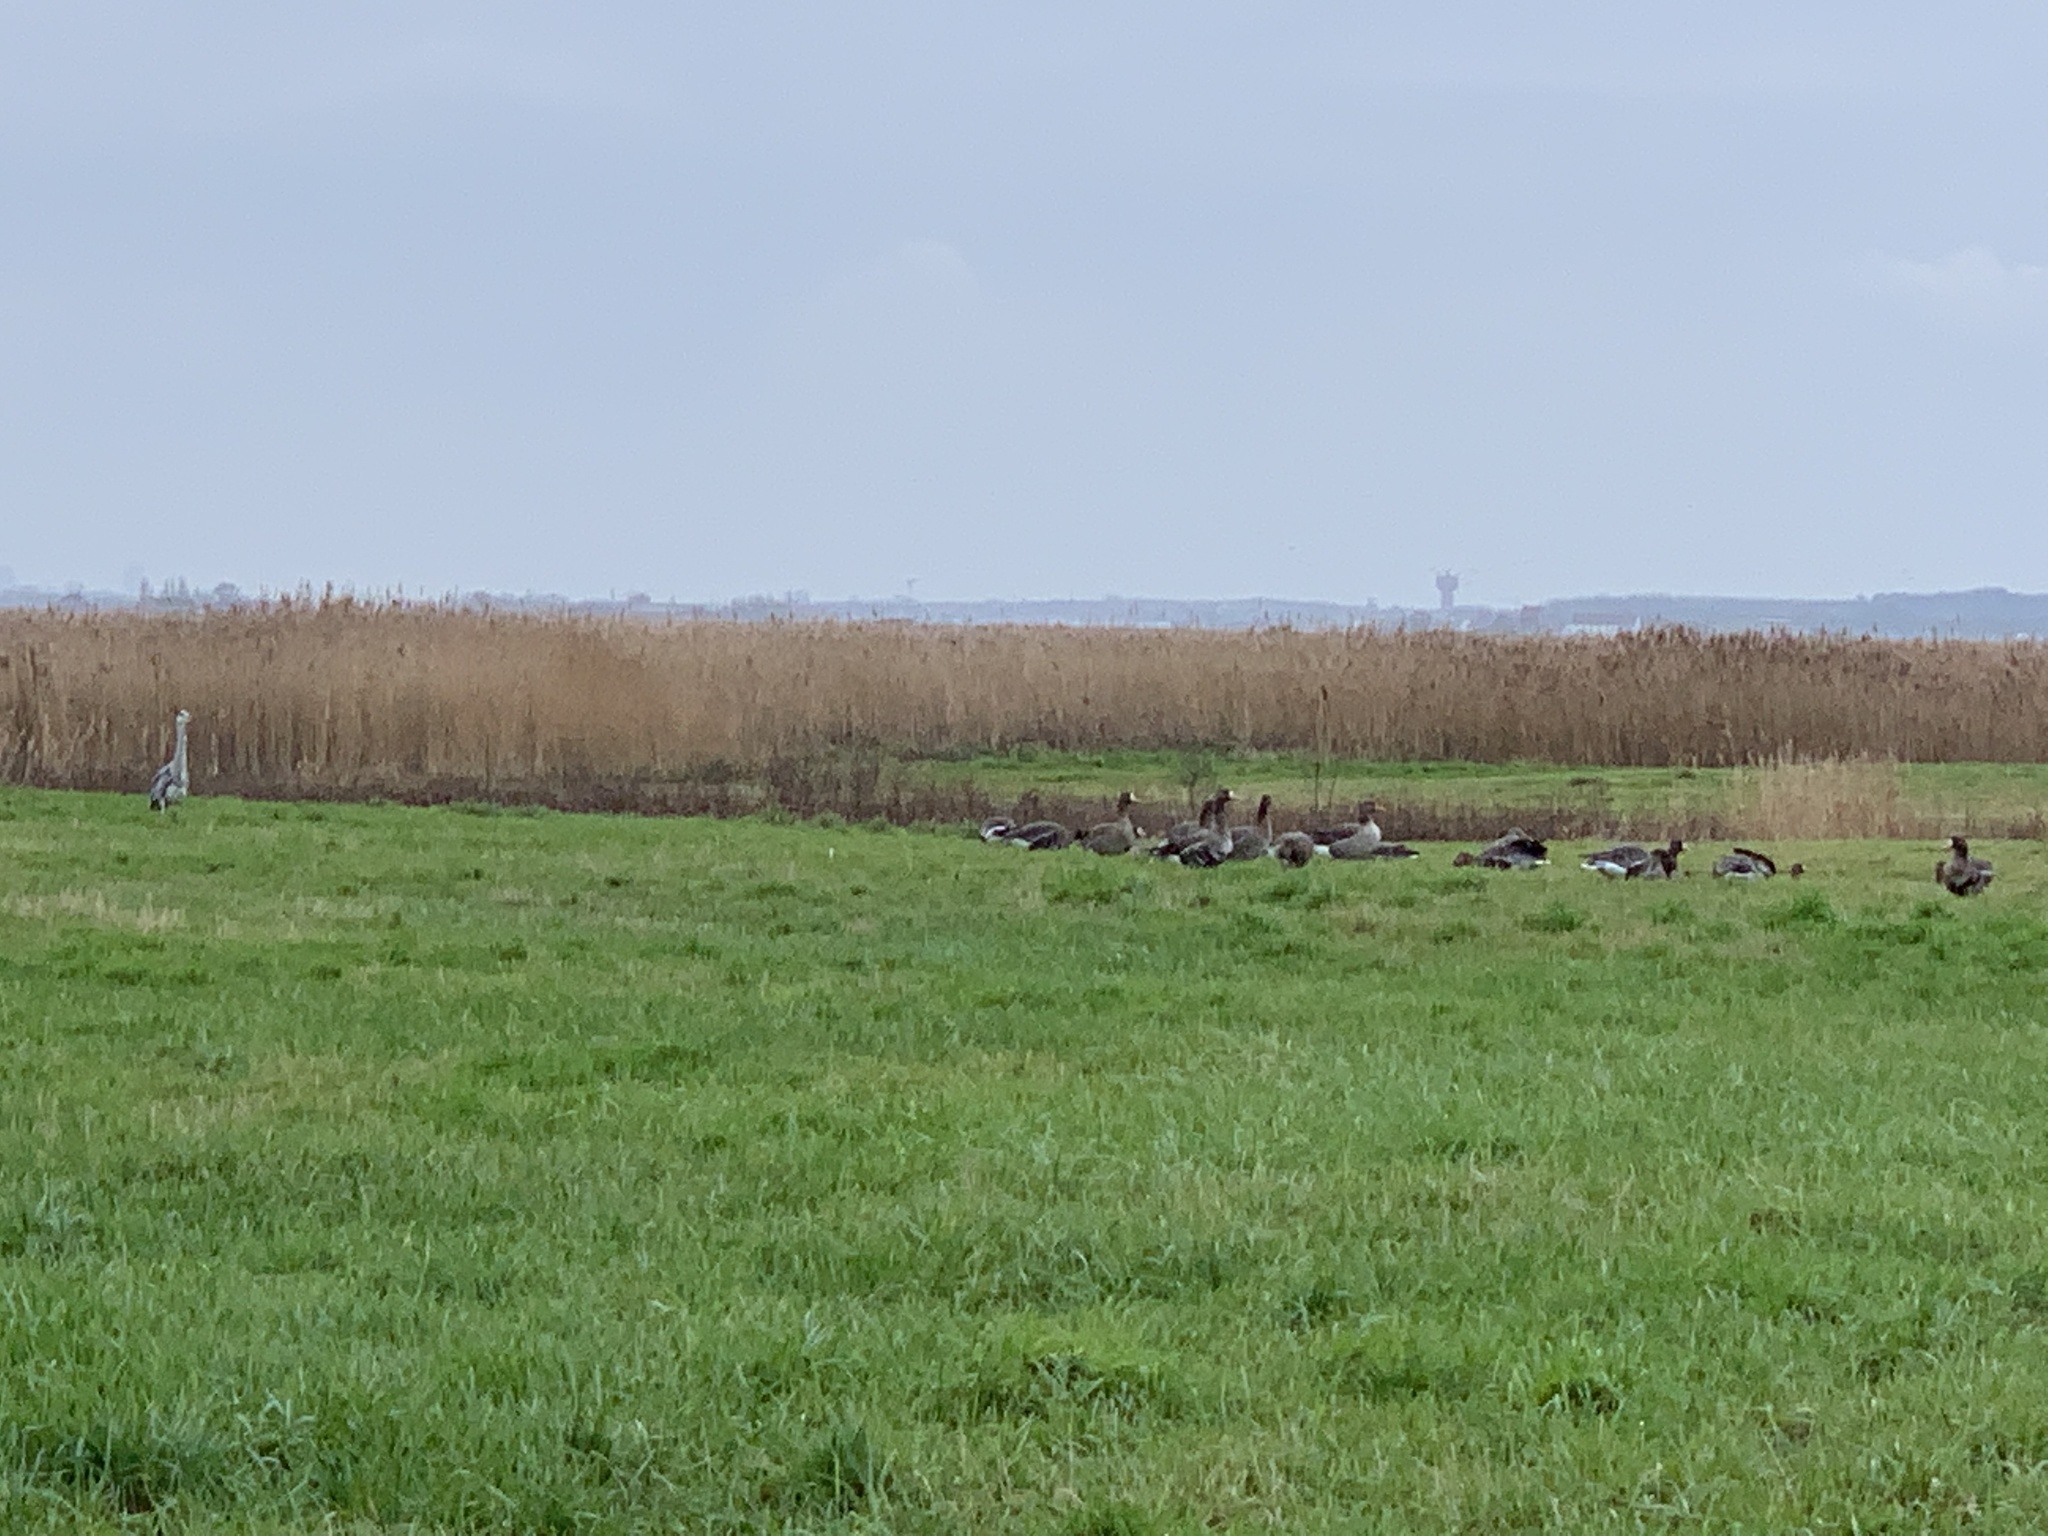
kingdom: Animalia
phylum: Chordata
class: Aves
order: Anseriformes
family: Anatidae
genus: Anser
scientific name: Anser albifrons
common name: Greater white-fronted goose
